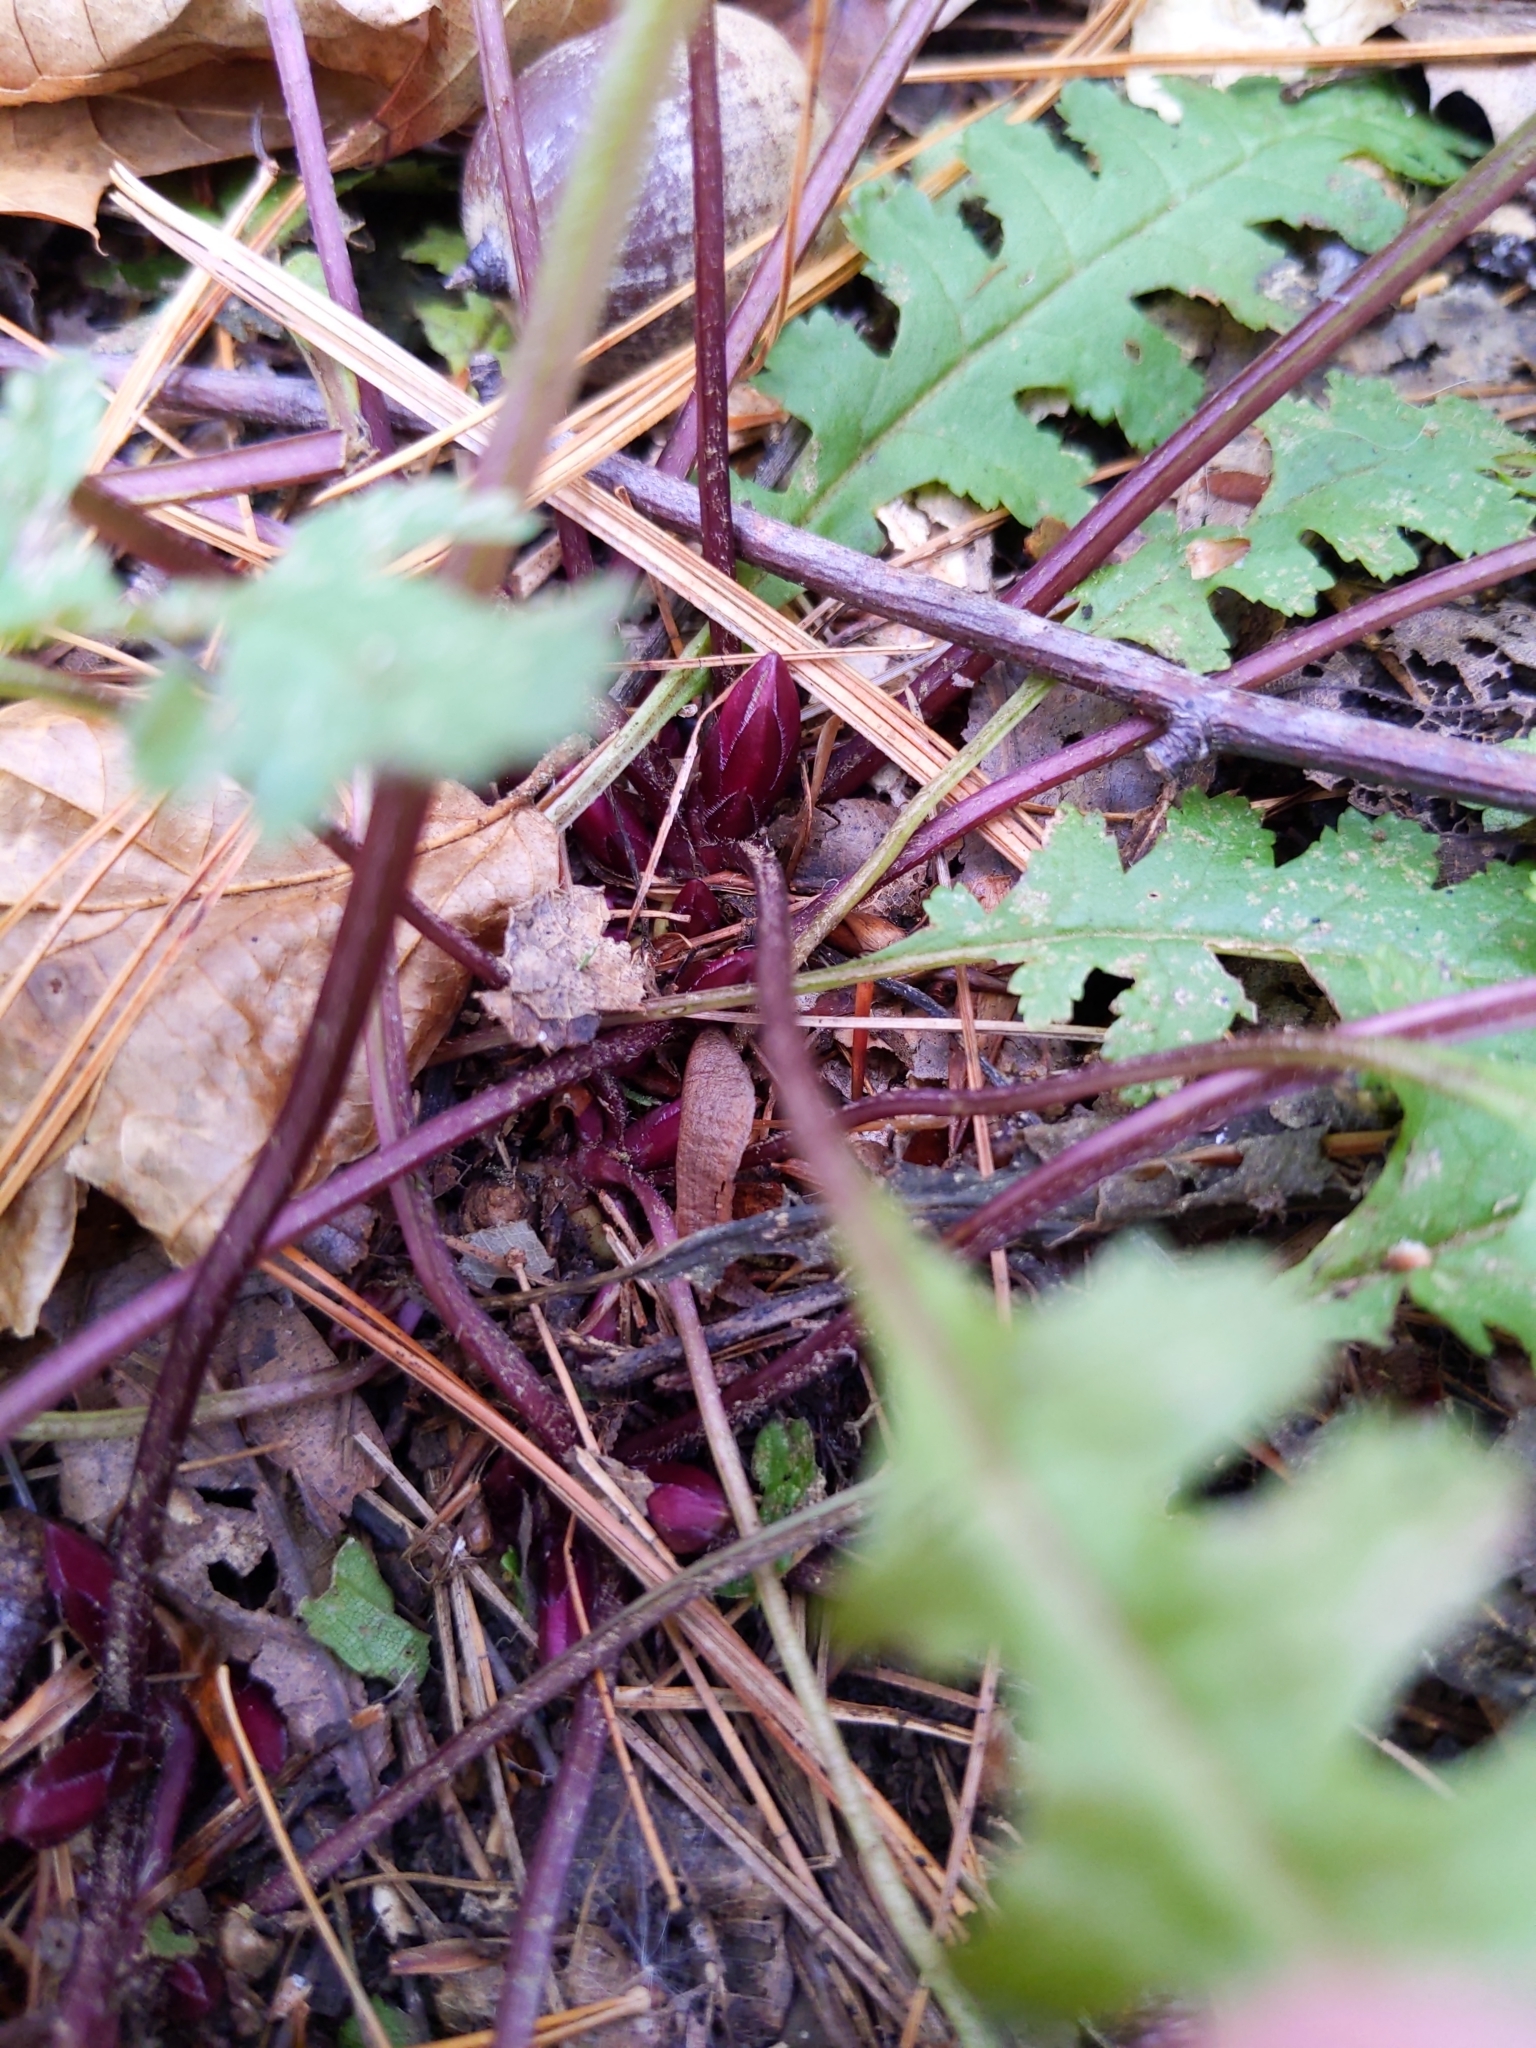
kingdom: Plantae
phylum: Tracheophyta
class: Magnoliopsida
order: Lamiales
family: Orobanchaceae
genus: Pedicularis
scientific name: Pedicularis canadensis
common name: Early lousewort
